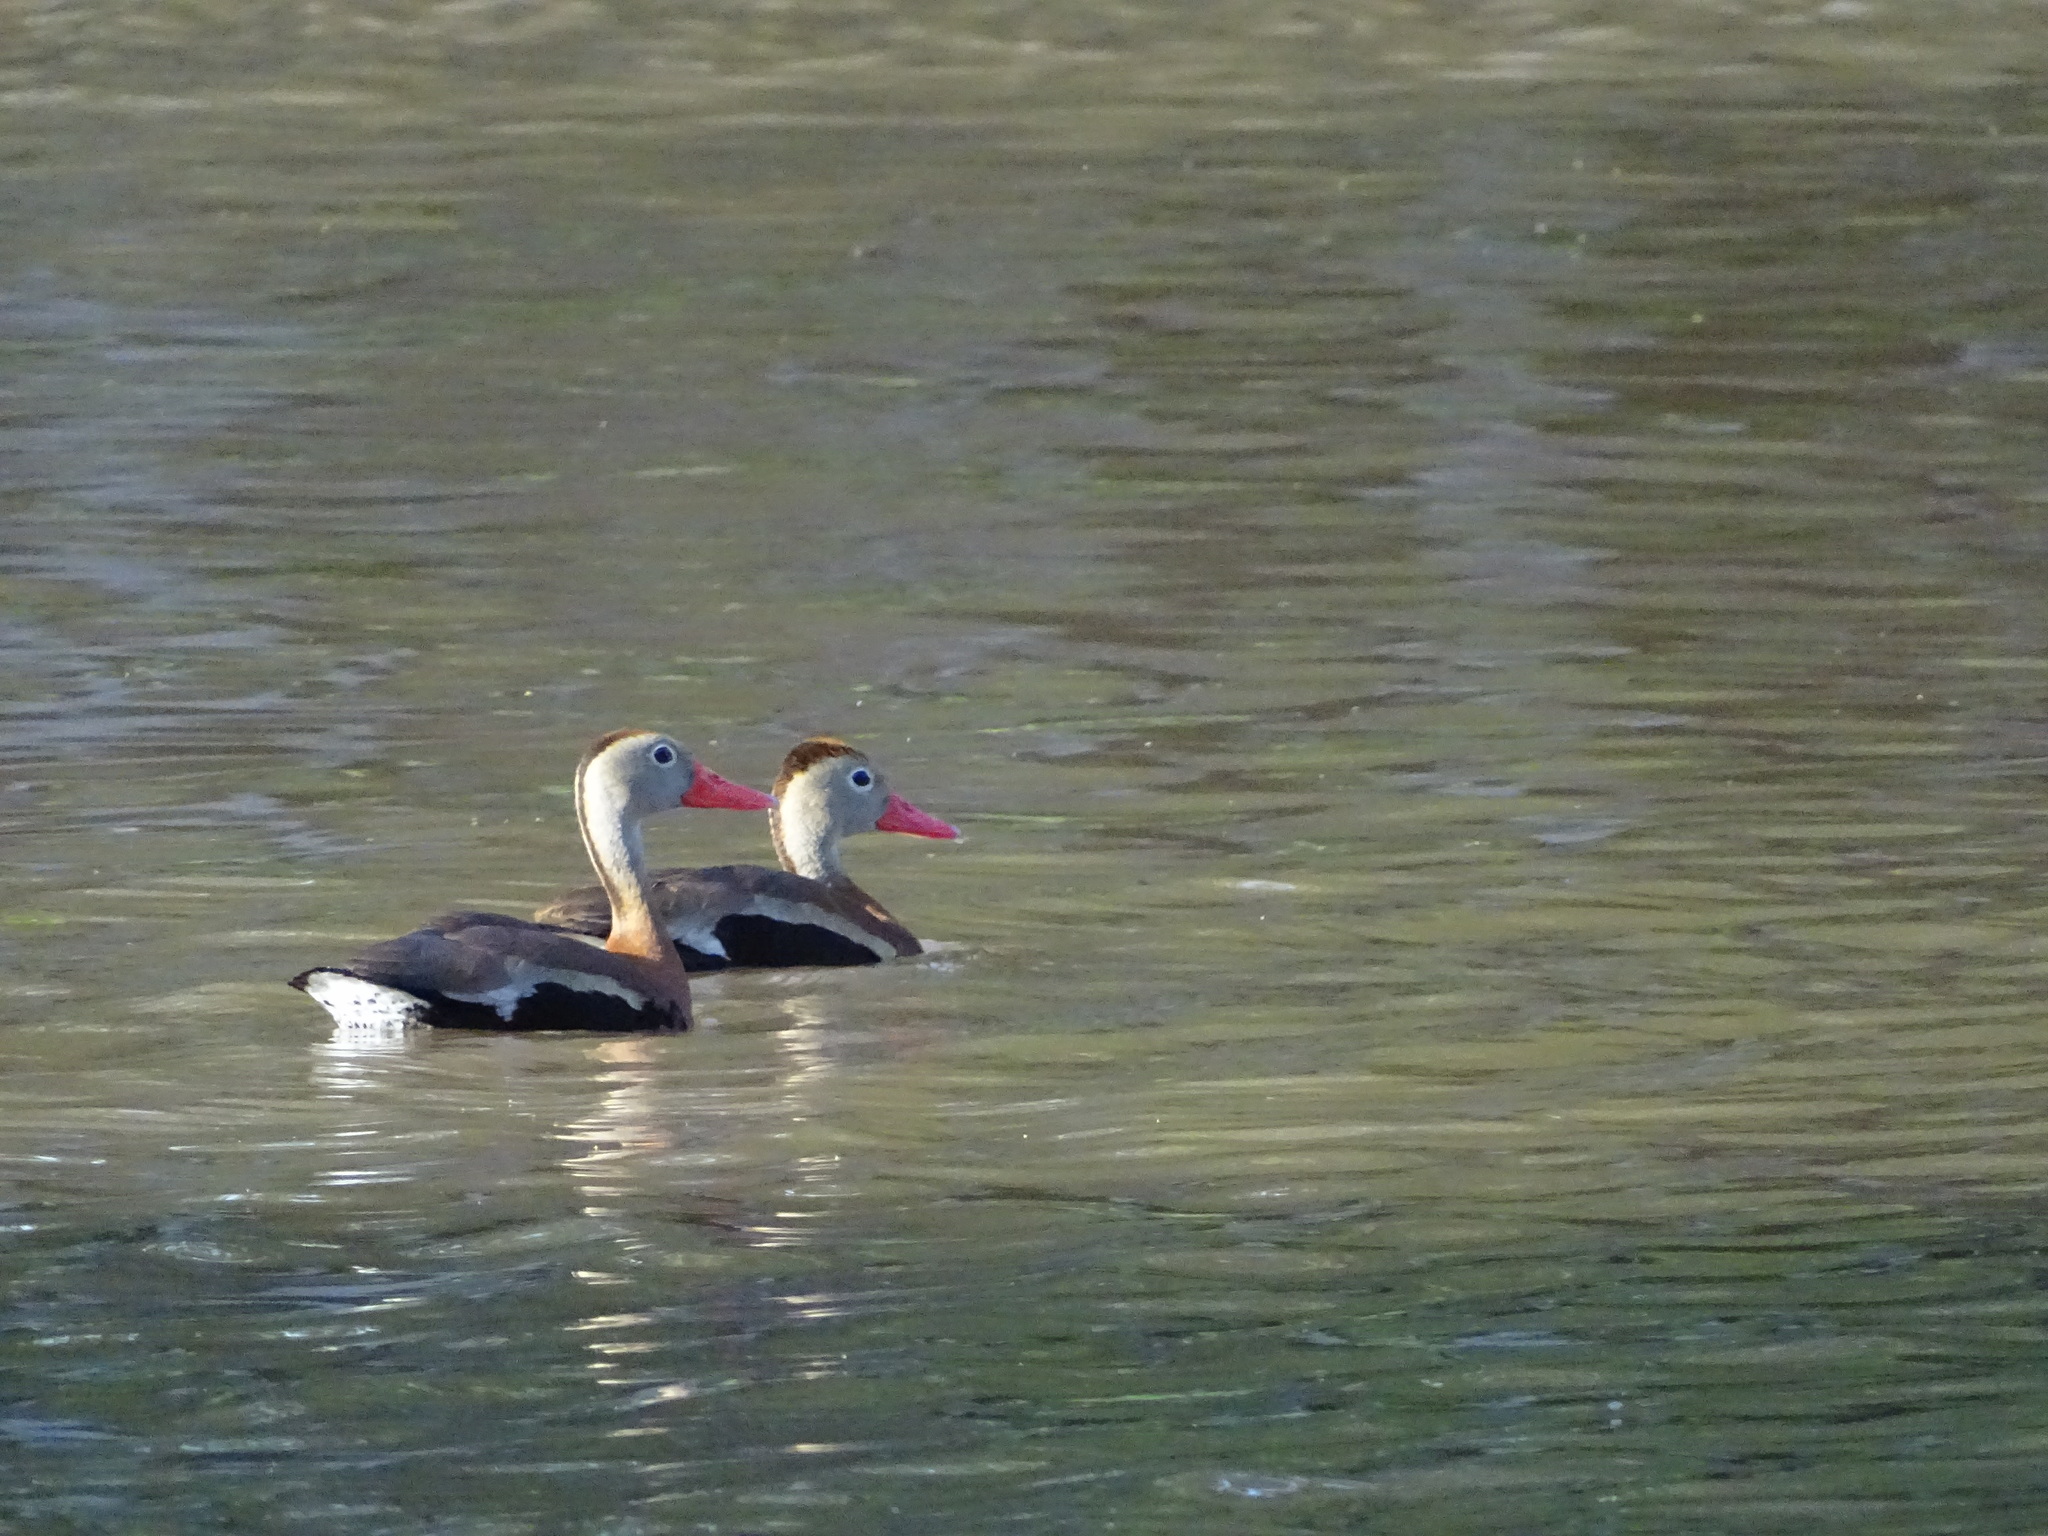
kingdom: Animalia
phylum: Chordata
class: Aves
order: Anseriformes
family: Anatidae
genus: Dendrocygna
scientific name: Dendrocygna autumnalis
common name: Black-bellied whistling duck
